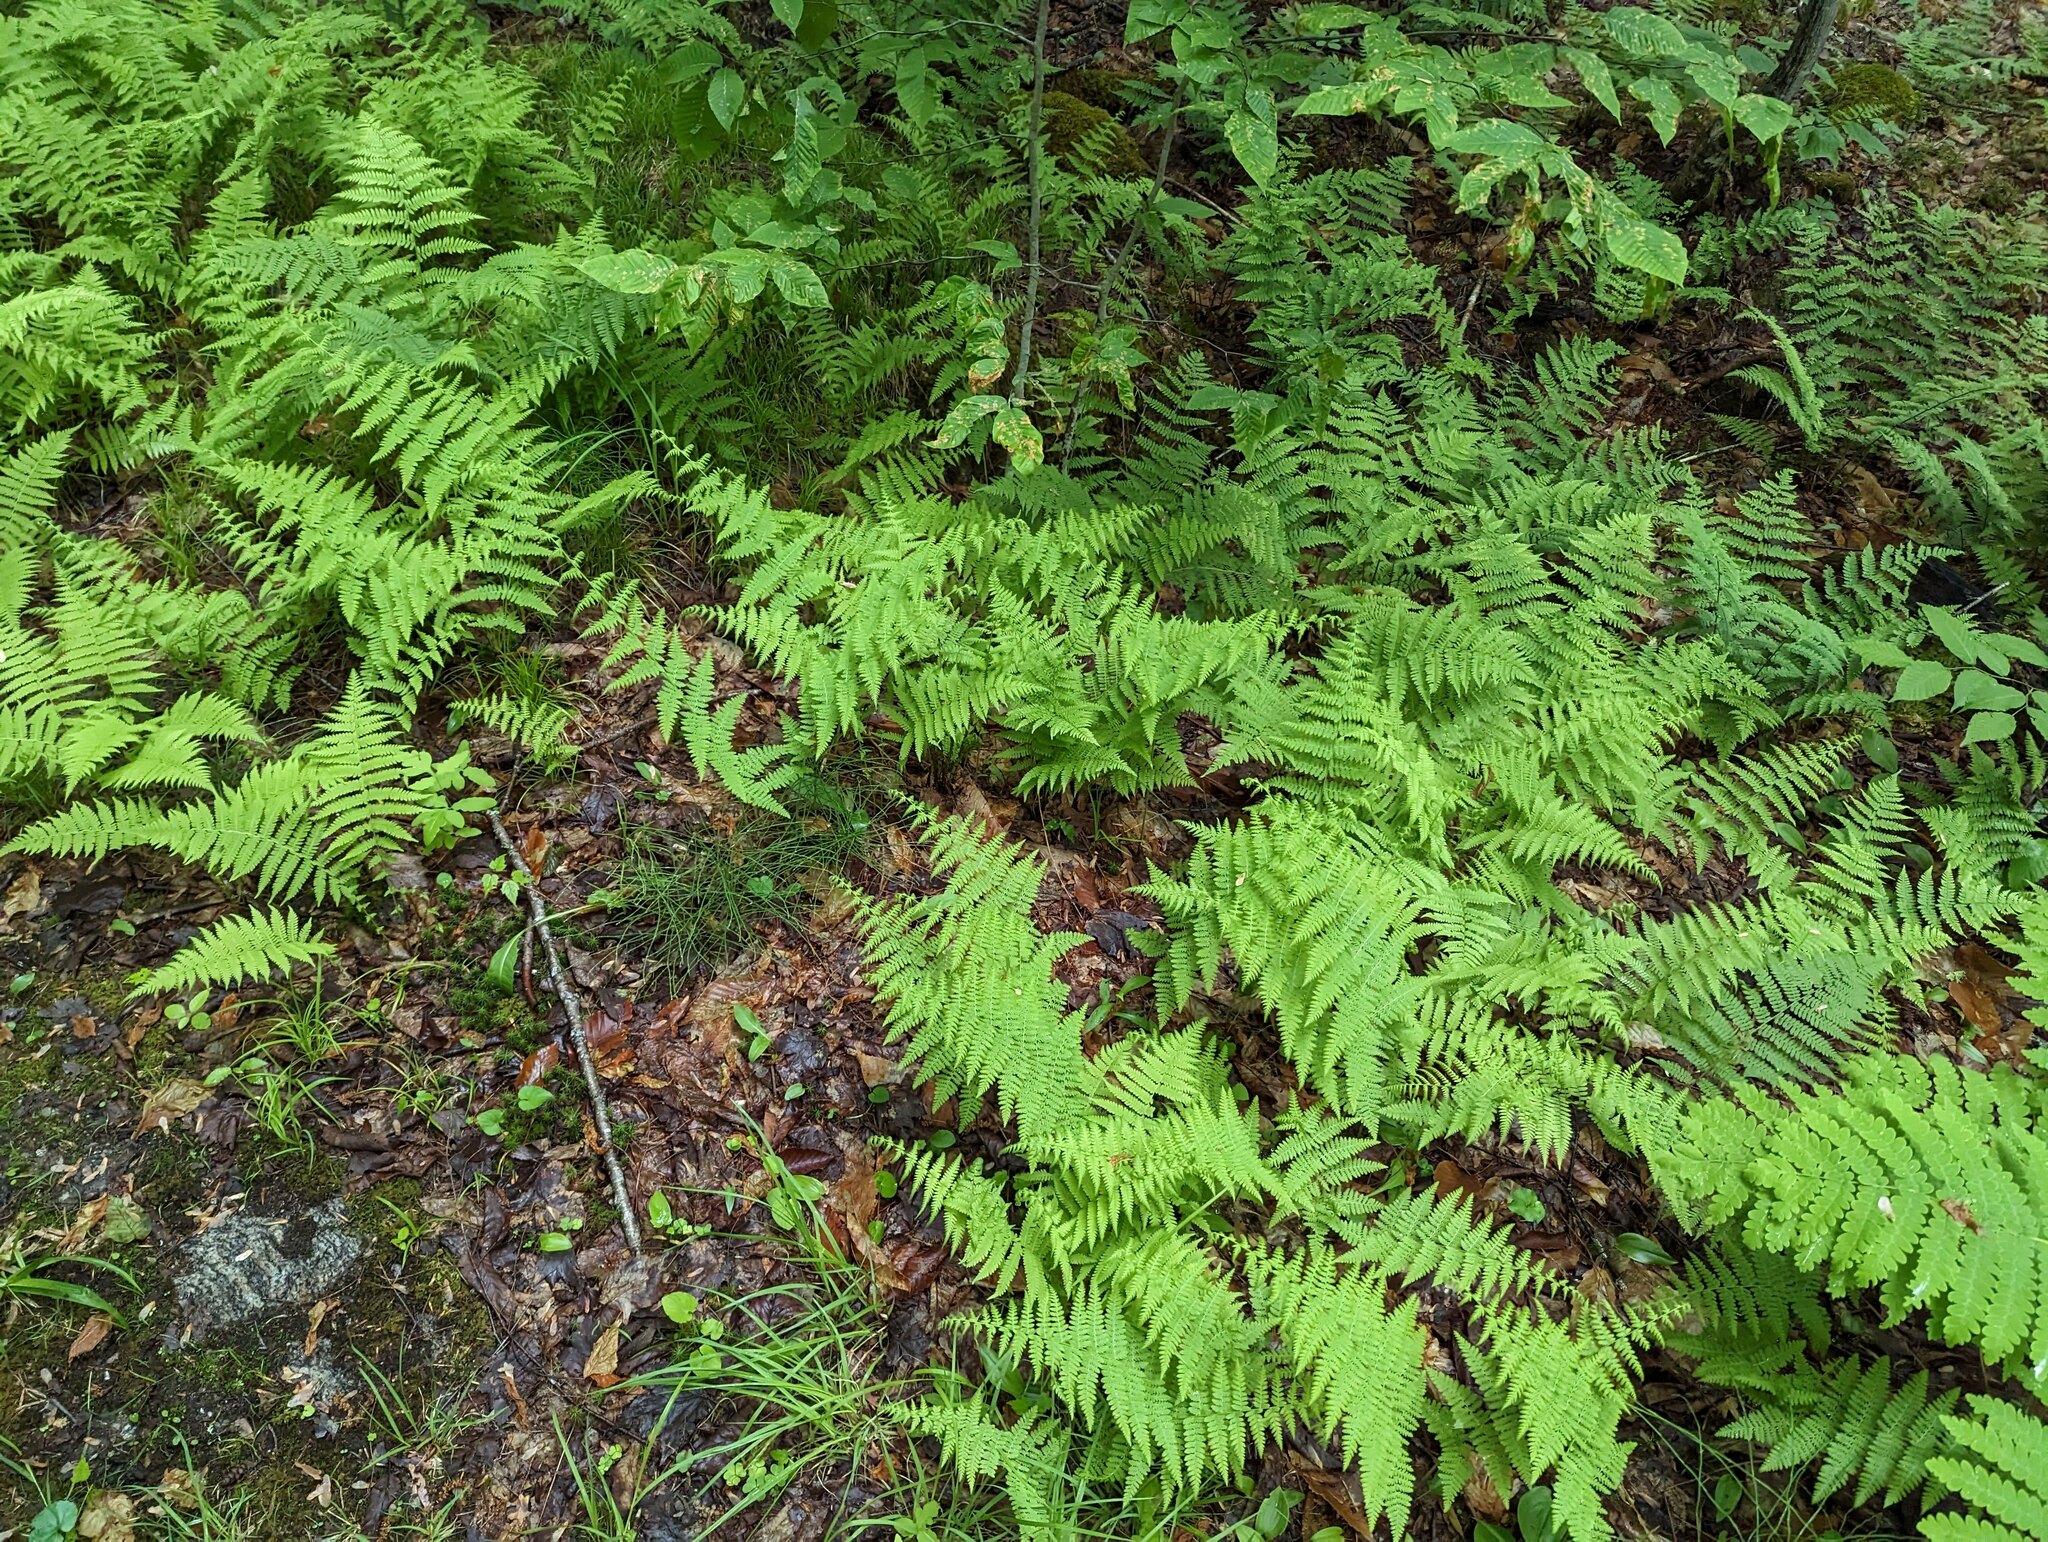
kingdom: Plantae
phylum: Tracheophyta
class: Polypodiopsida
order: Polypodiales
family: Dennstaedtiaceae
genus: Sitobolium
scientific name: Sitobolium punctilobum
